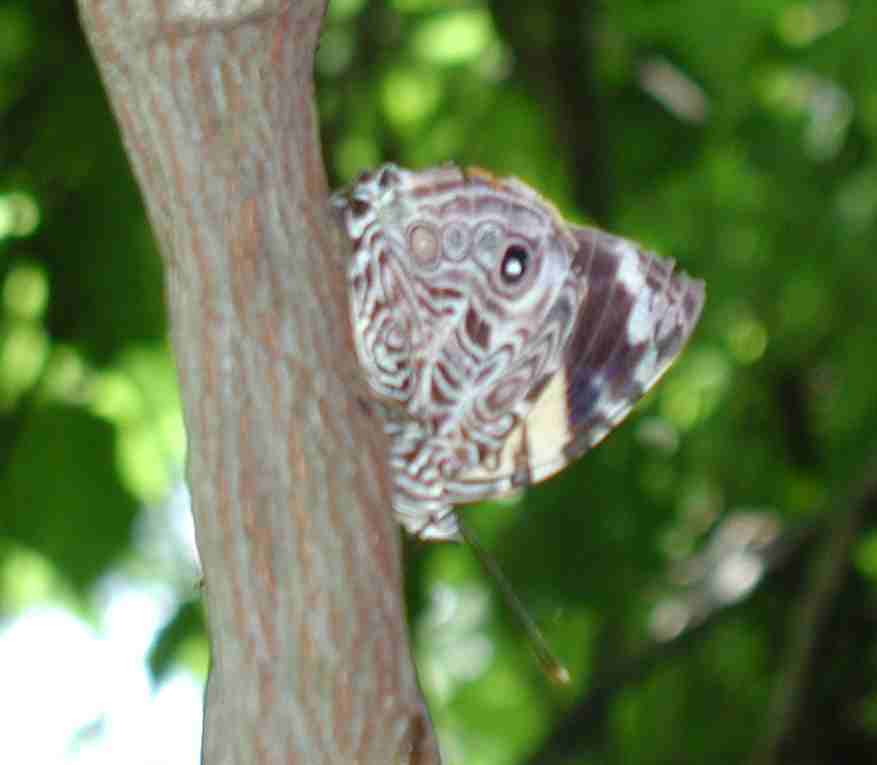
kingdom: Animalia
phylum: Arthropoda
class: Insecta
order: Lepidoptera
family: Nymphalidae
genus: Smyrna
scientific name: Smyrna blomfildia
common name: Blomfild's beauty
